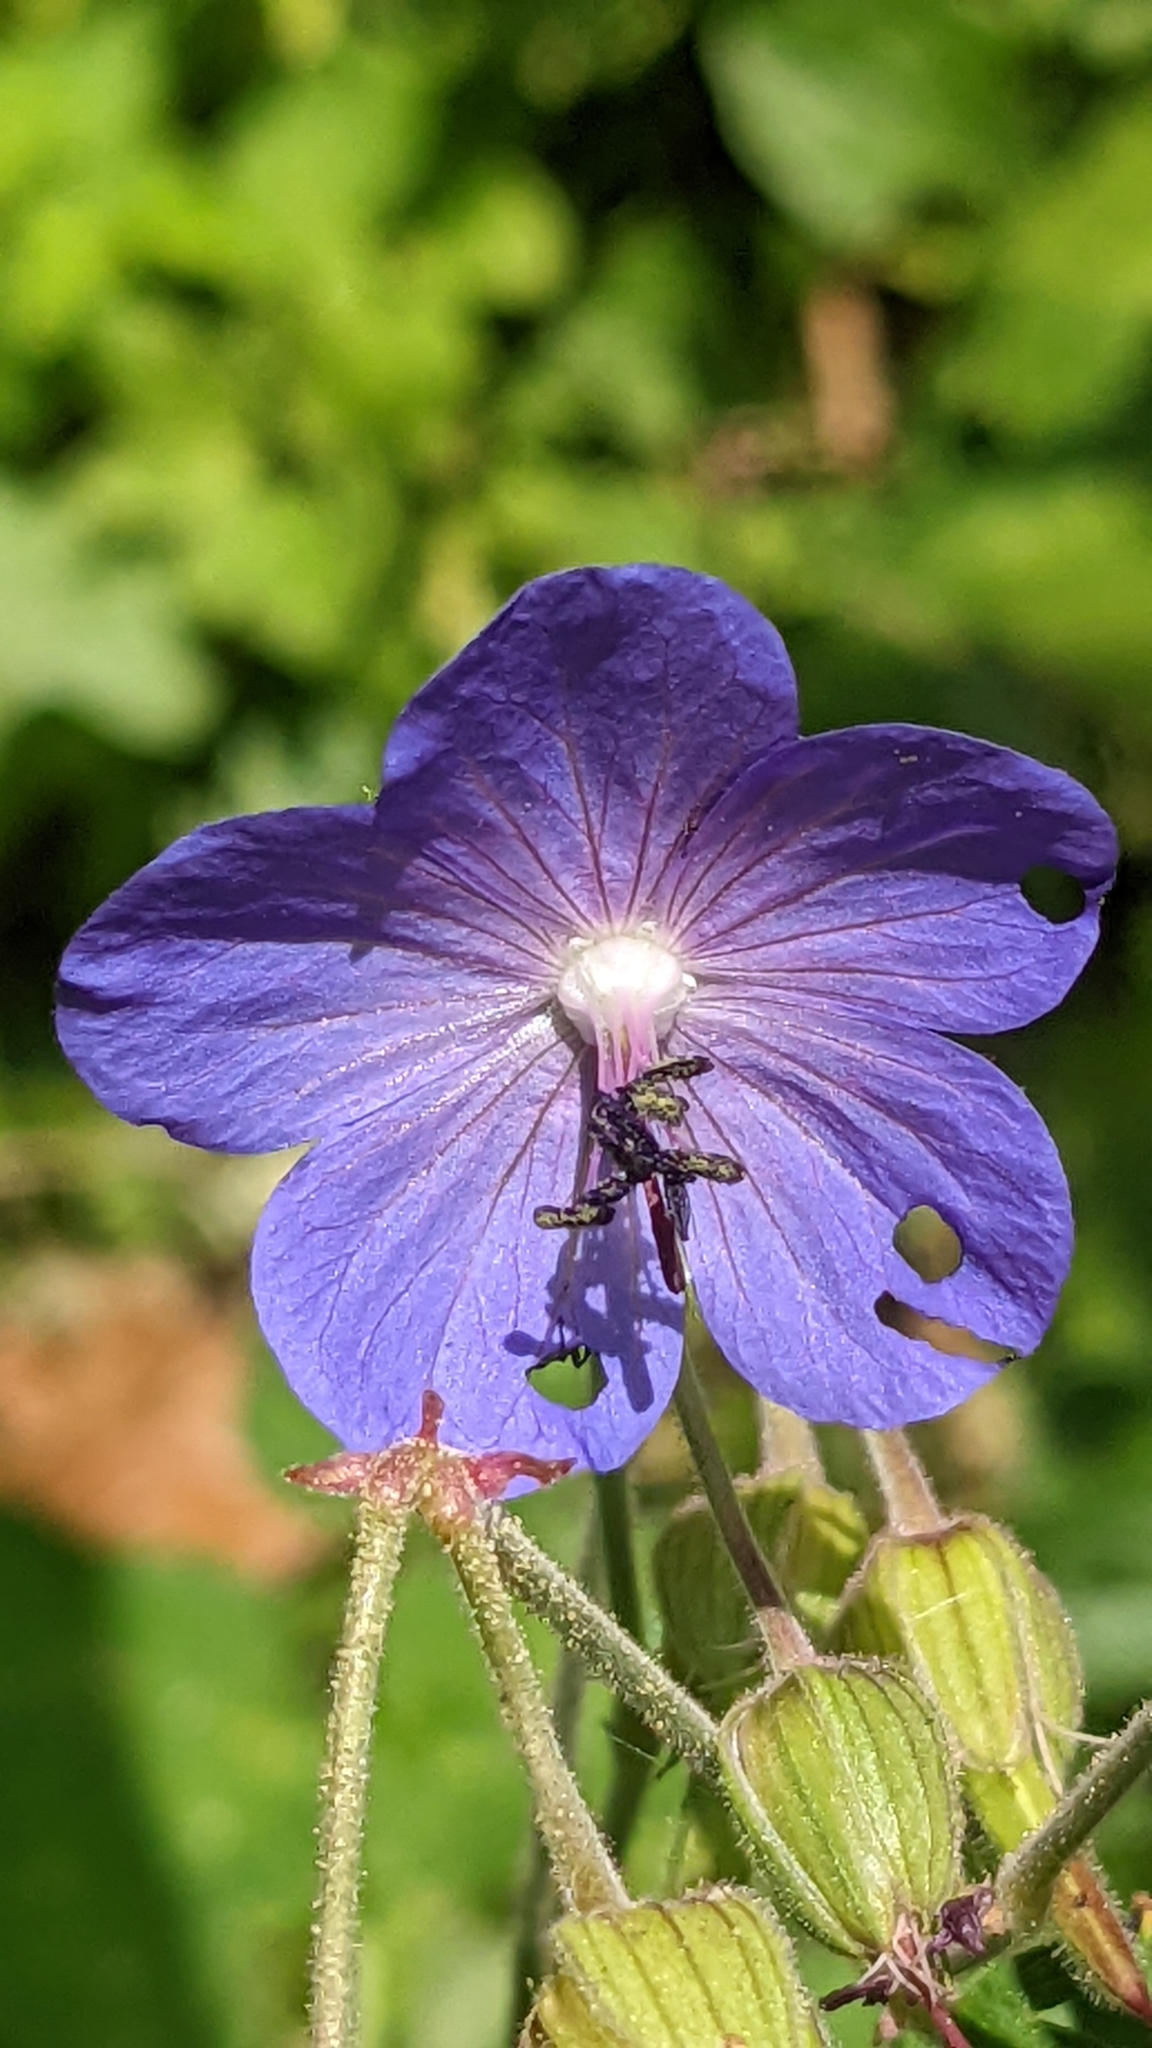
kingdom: Plantae
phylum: Tracheophyta
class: Magnoliopsida
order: Geraniales
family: Geraniaceae
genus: Geranium
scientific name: Geranium pratense
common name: Meadow crane's-bill
